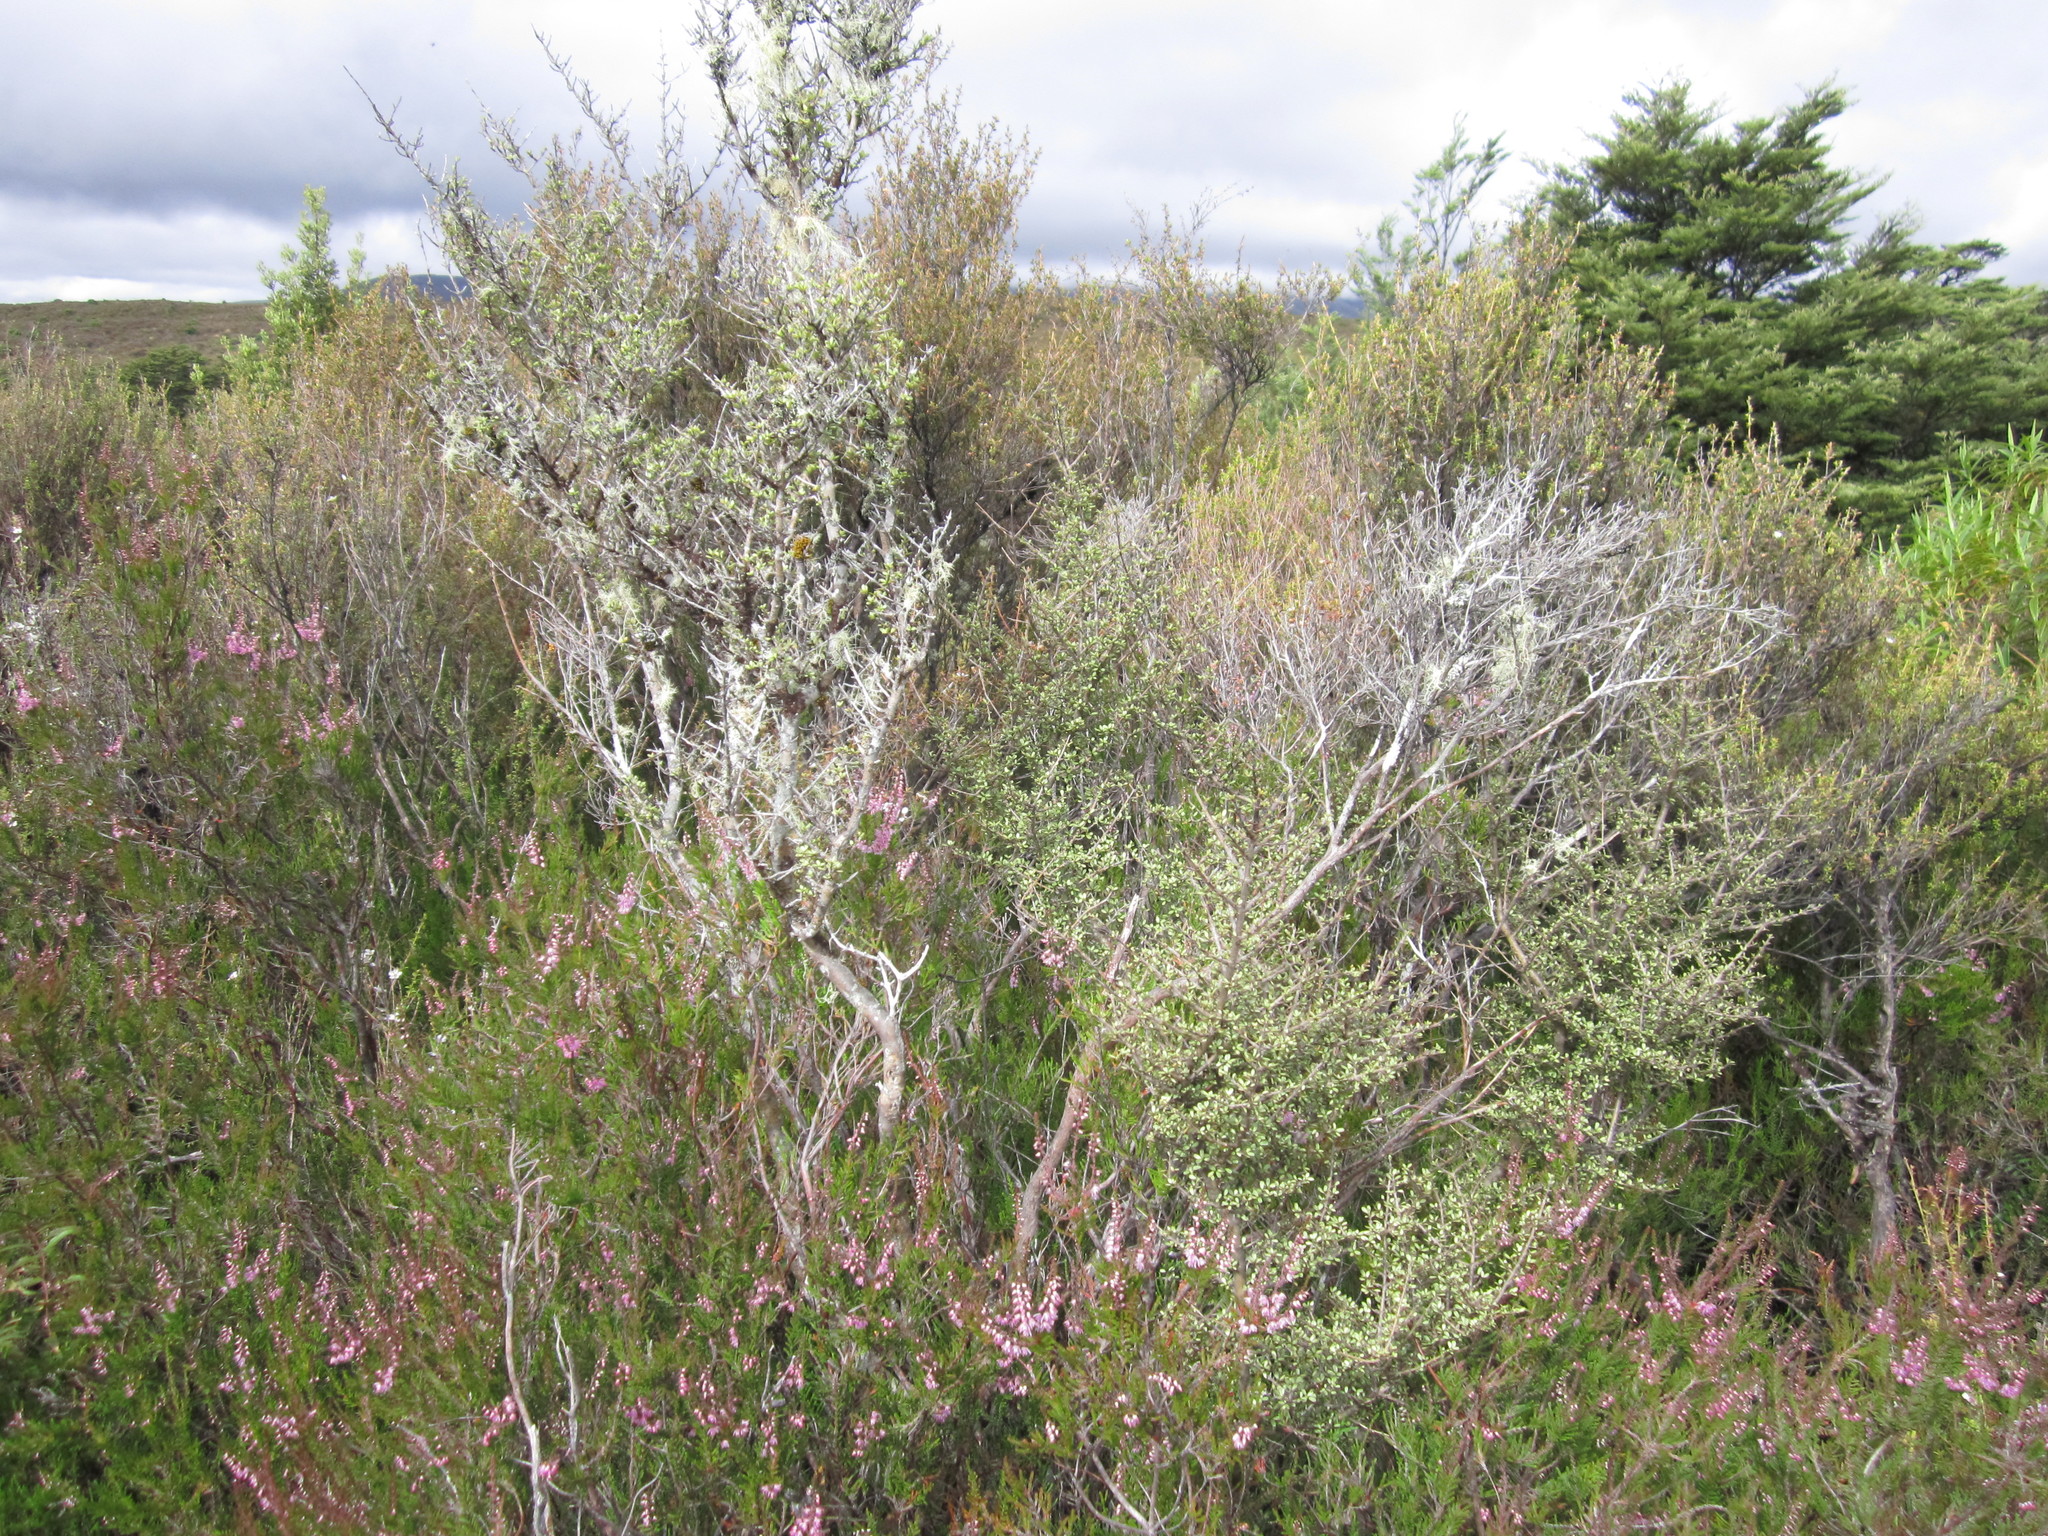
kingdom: Plantae
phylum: Tracheophyta
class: Magnoliopsida
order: Gentianales
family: Rubiaceae
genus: Coprosma
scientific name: Coprosma dumosa
